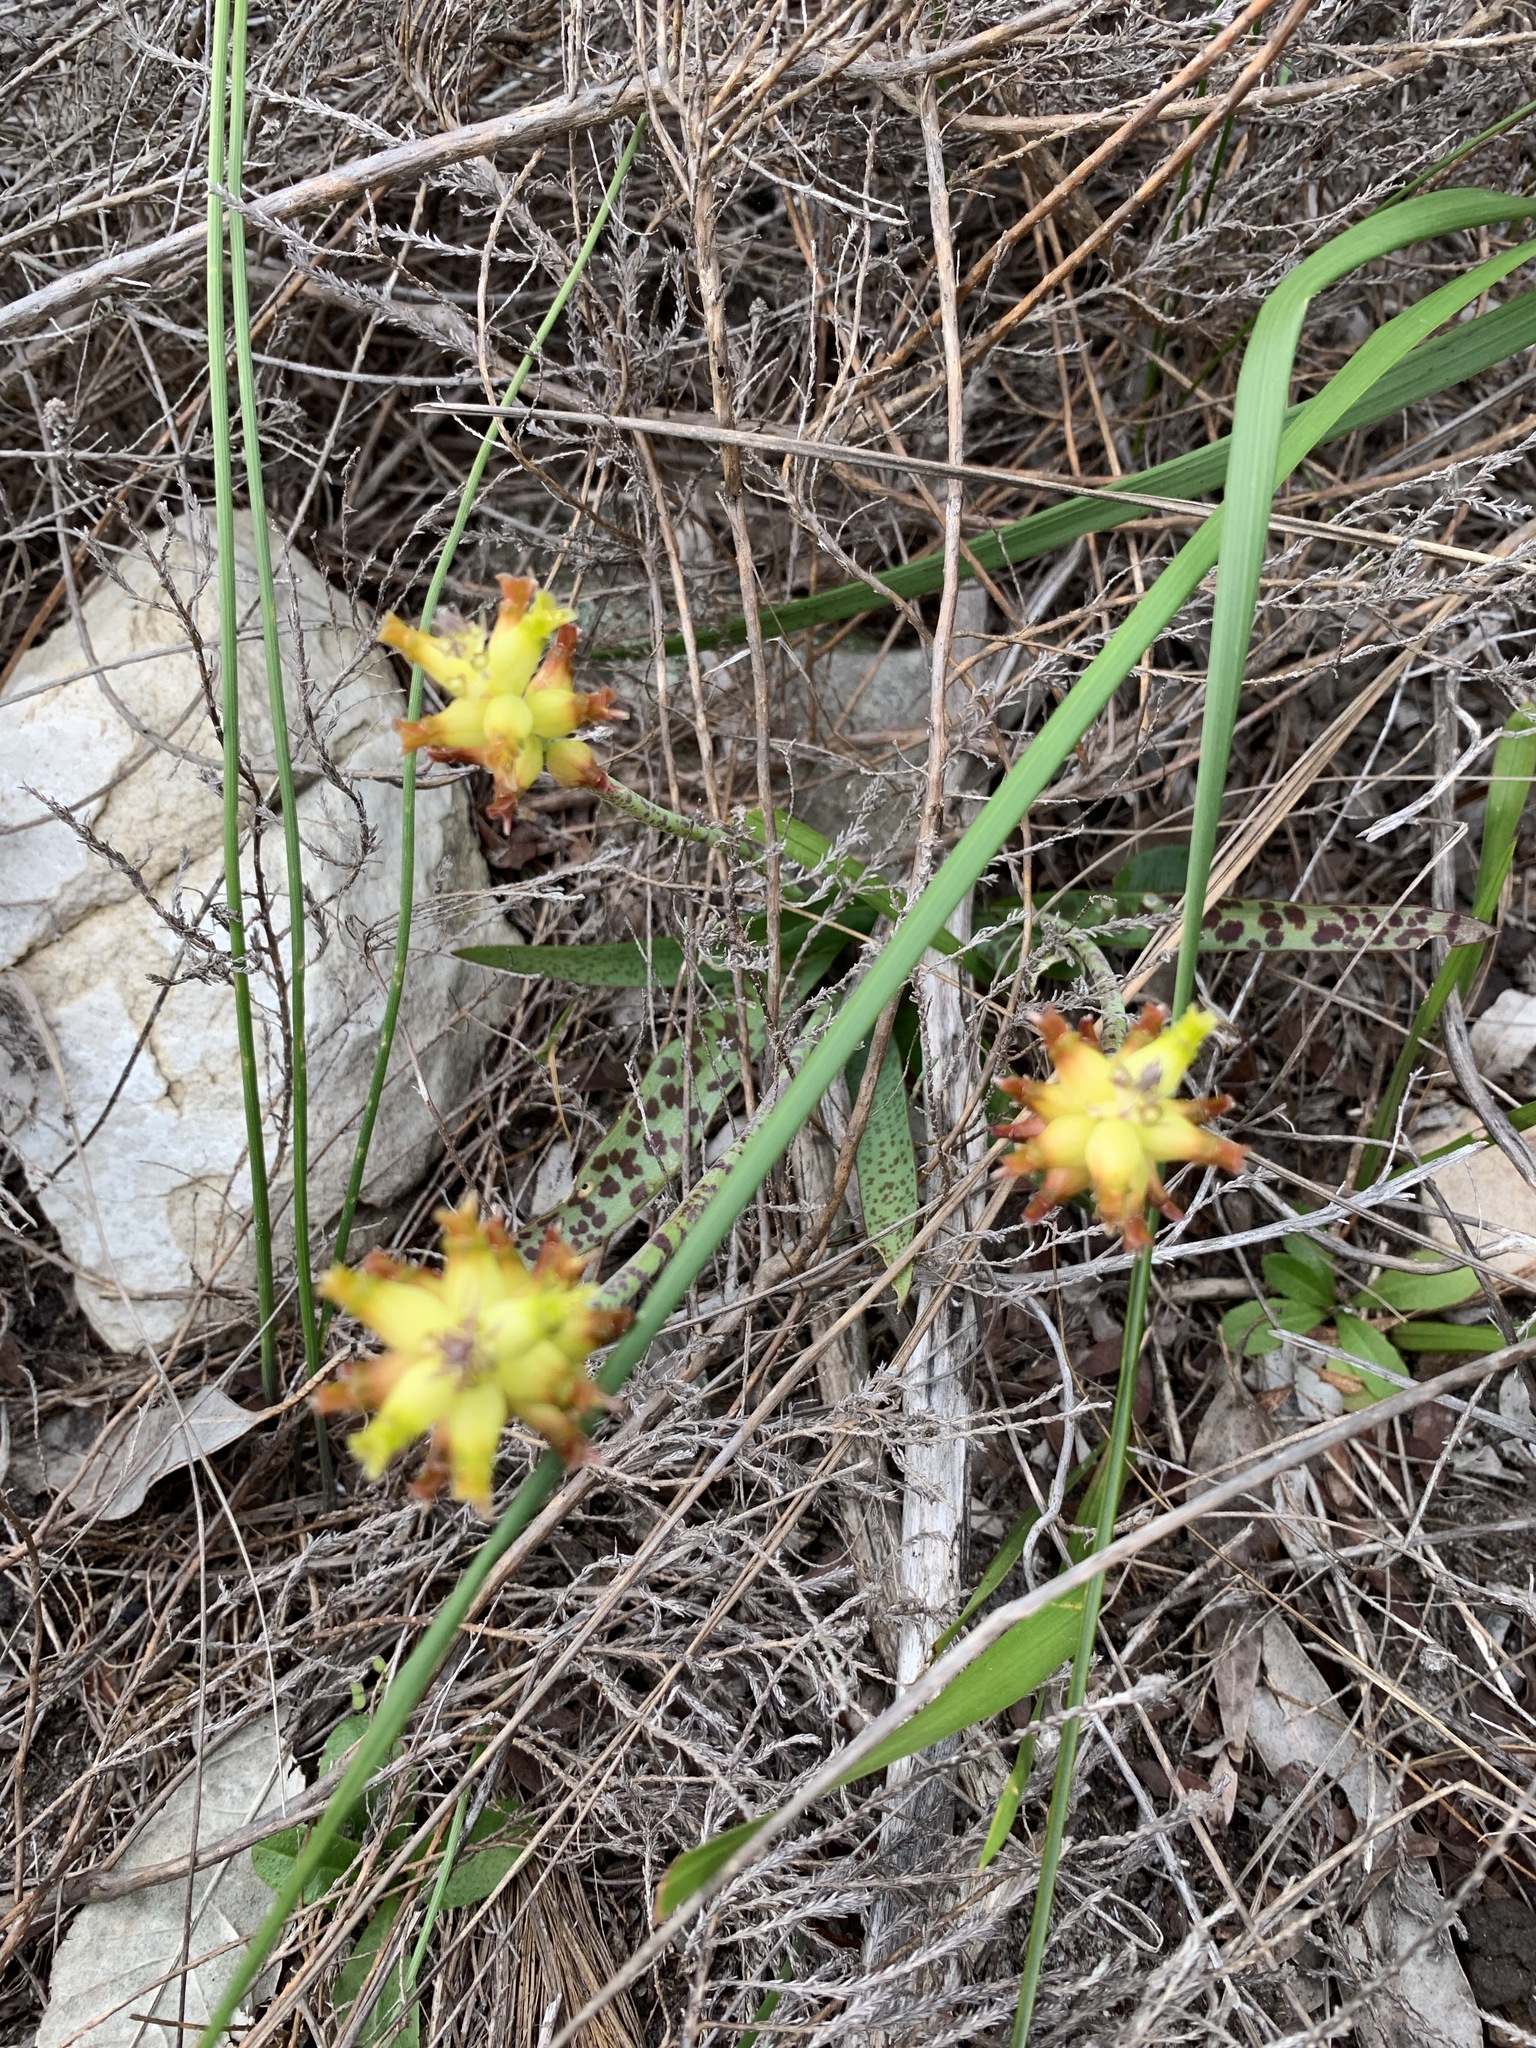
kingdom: Plantae
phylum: Tracheophyta
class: Liliopsida
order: Asparagales
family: Asparagaceae
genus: Lachenalia
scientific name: Lachenalia lutea
